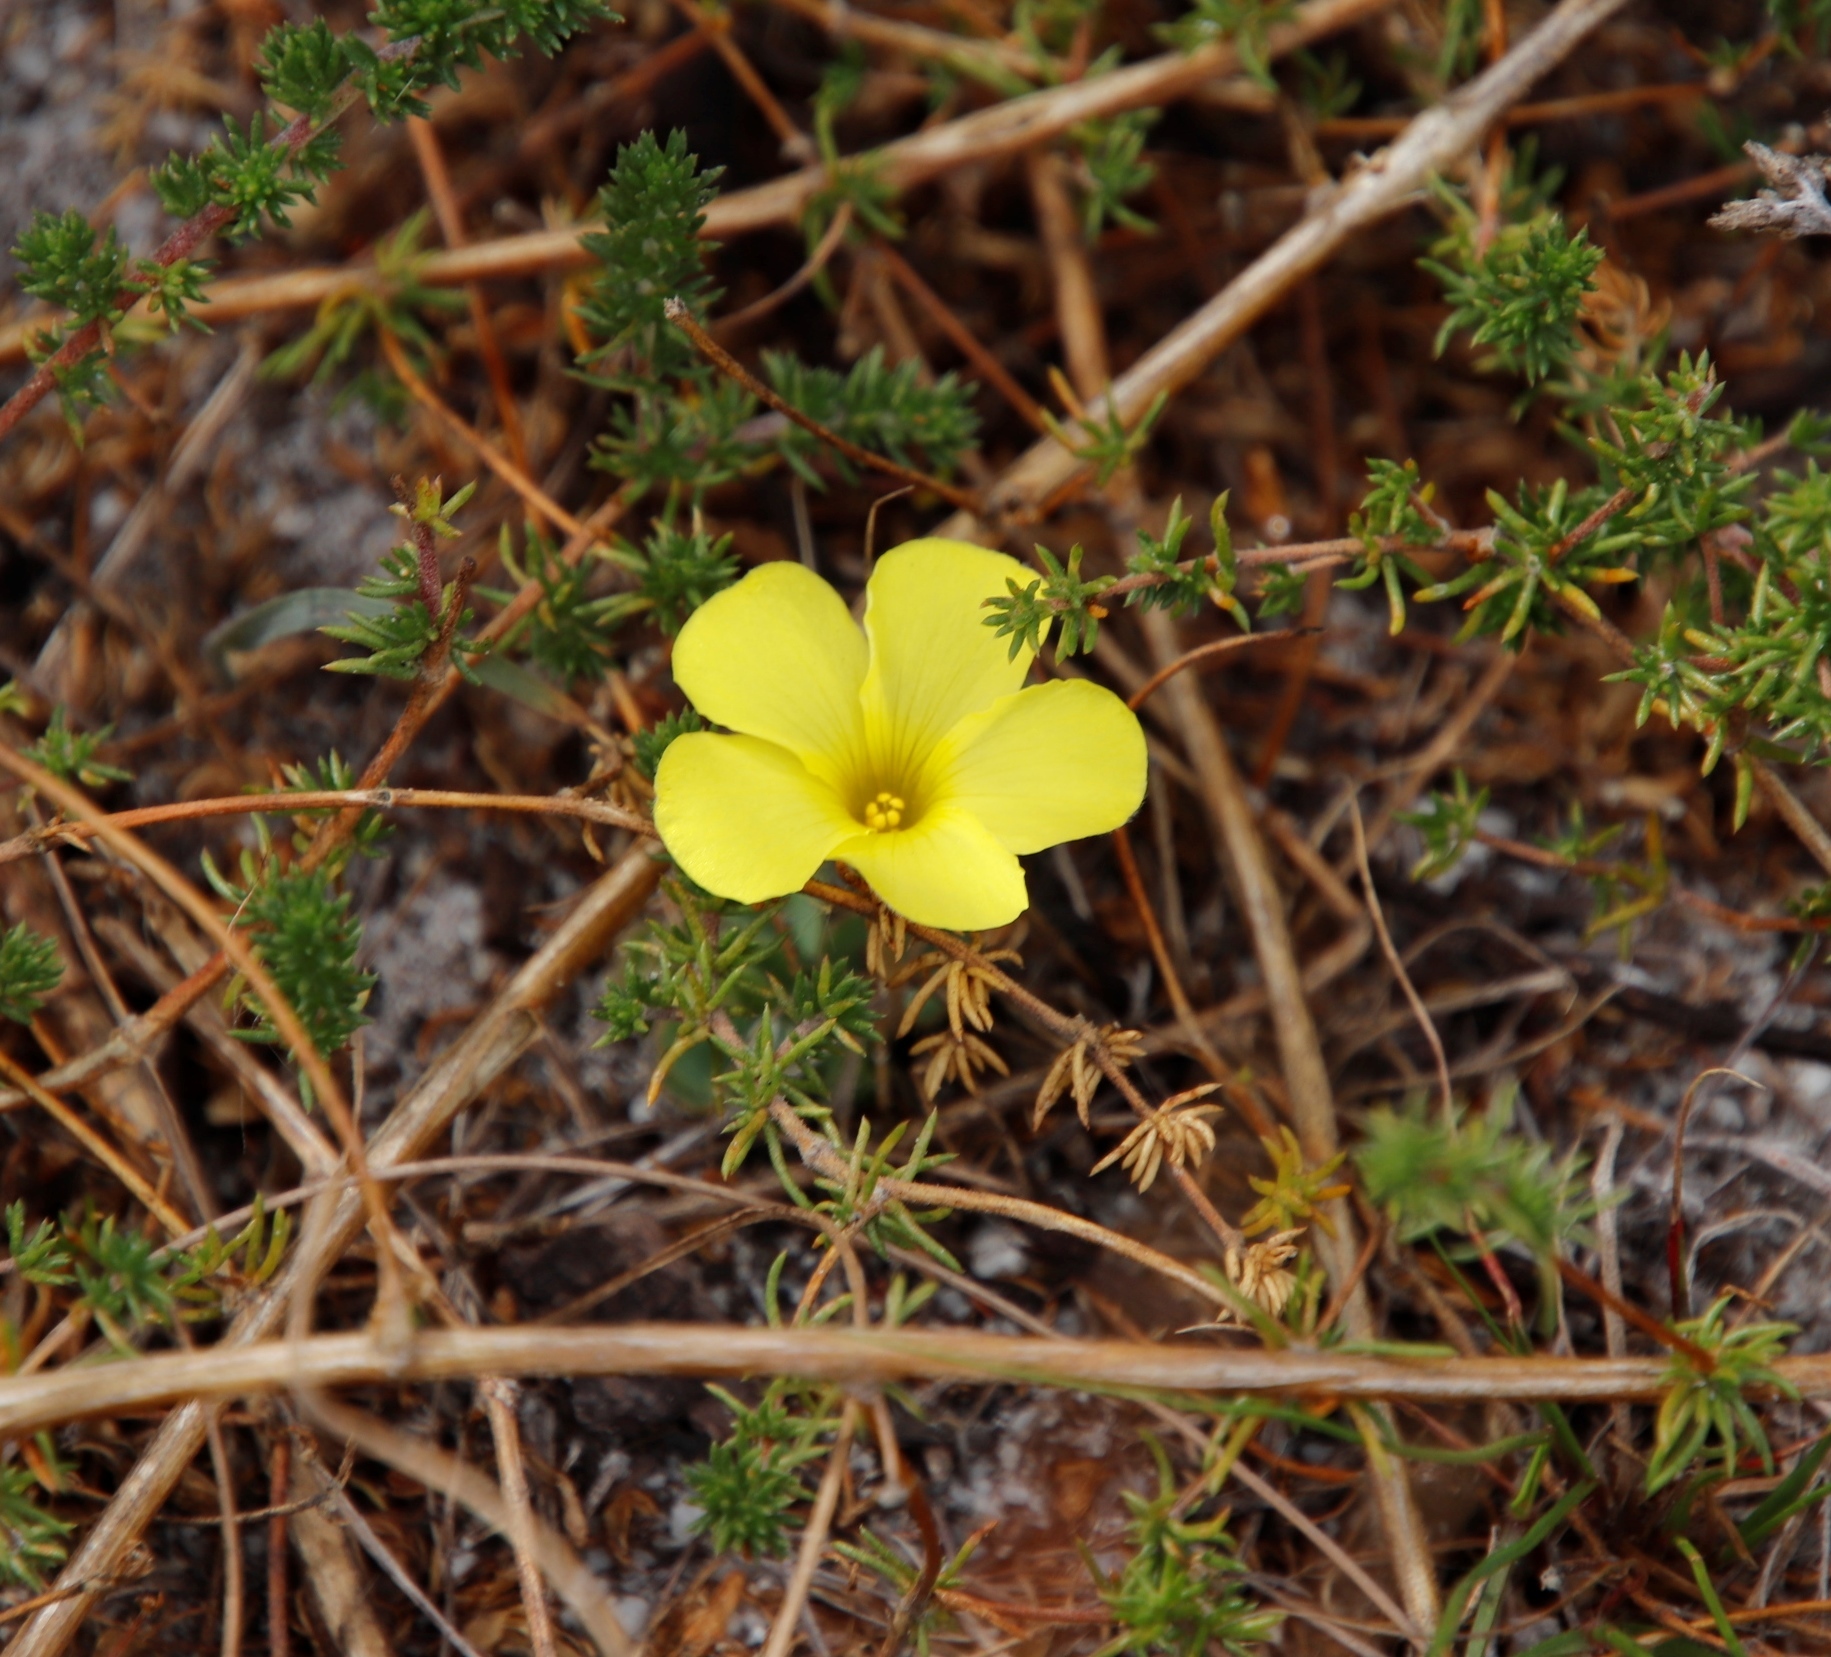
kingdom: Plantae
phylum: Tracheophyta
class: Magnoliopsida
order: Oxalidales
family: Oxalidaceae
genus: Oxalis
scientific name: Oxalis luteola
